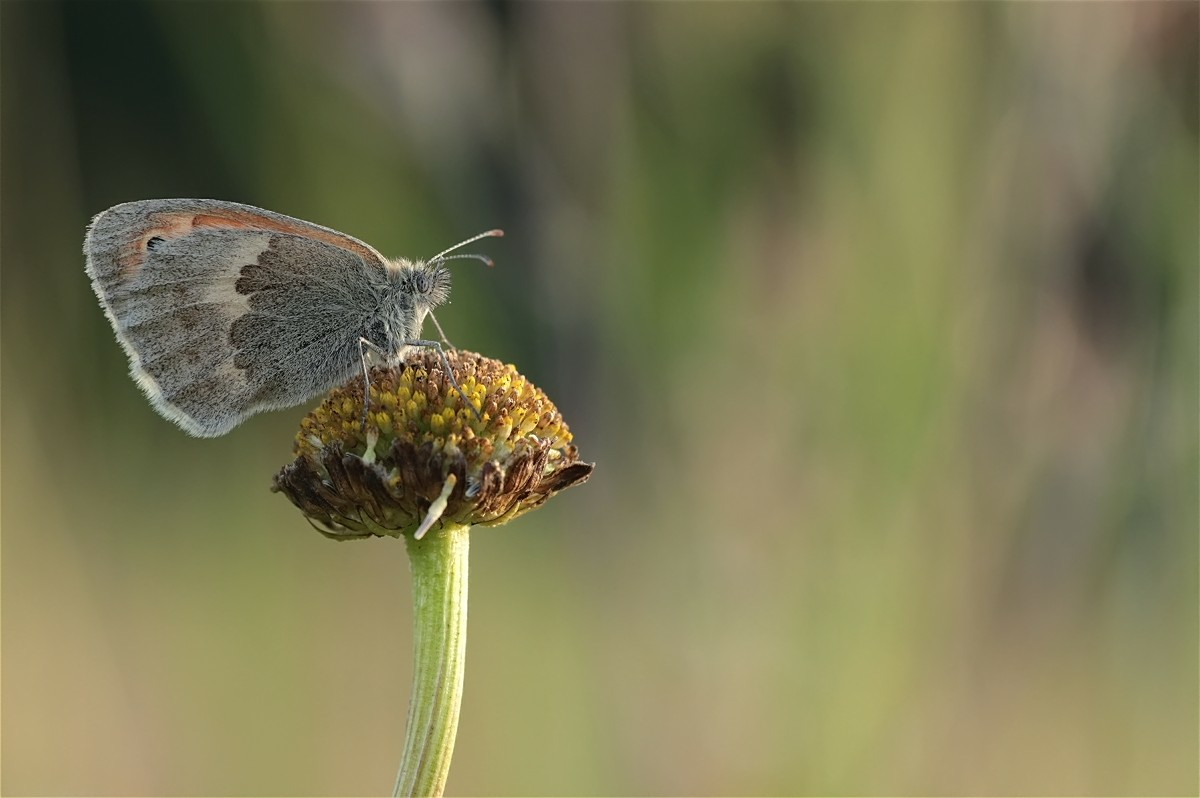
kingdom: Animalia
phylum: Arthropoda
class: Insecta
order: Lepidoptera
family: Nymphalidae
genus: Coenonympha
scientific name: Coenonympha pamphilus
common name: Small heath
